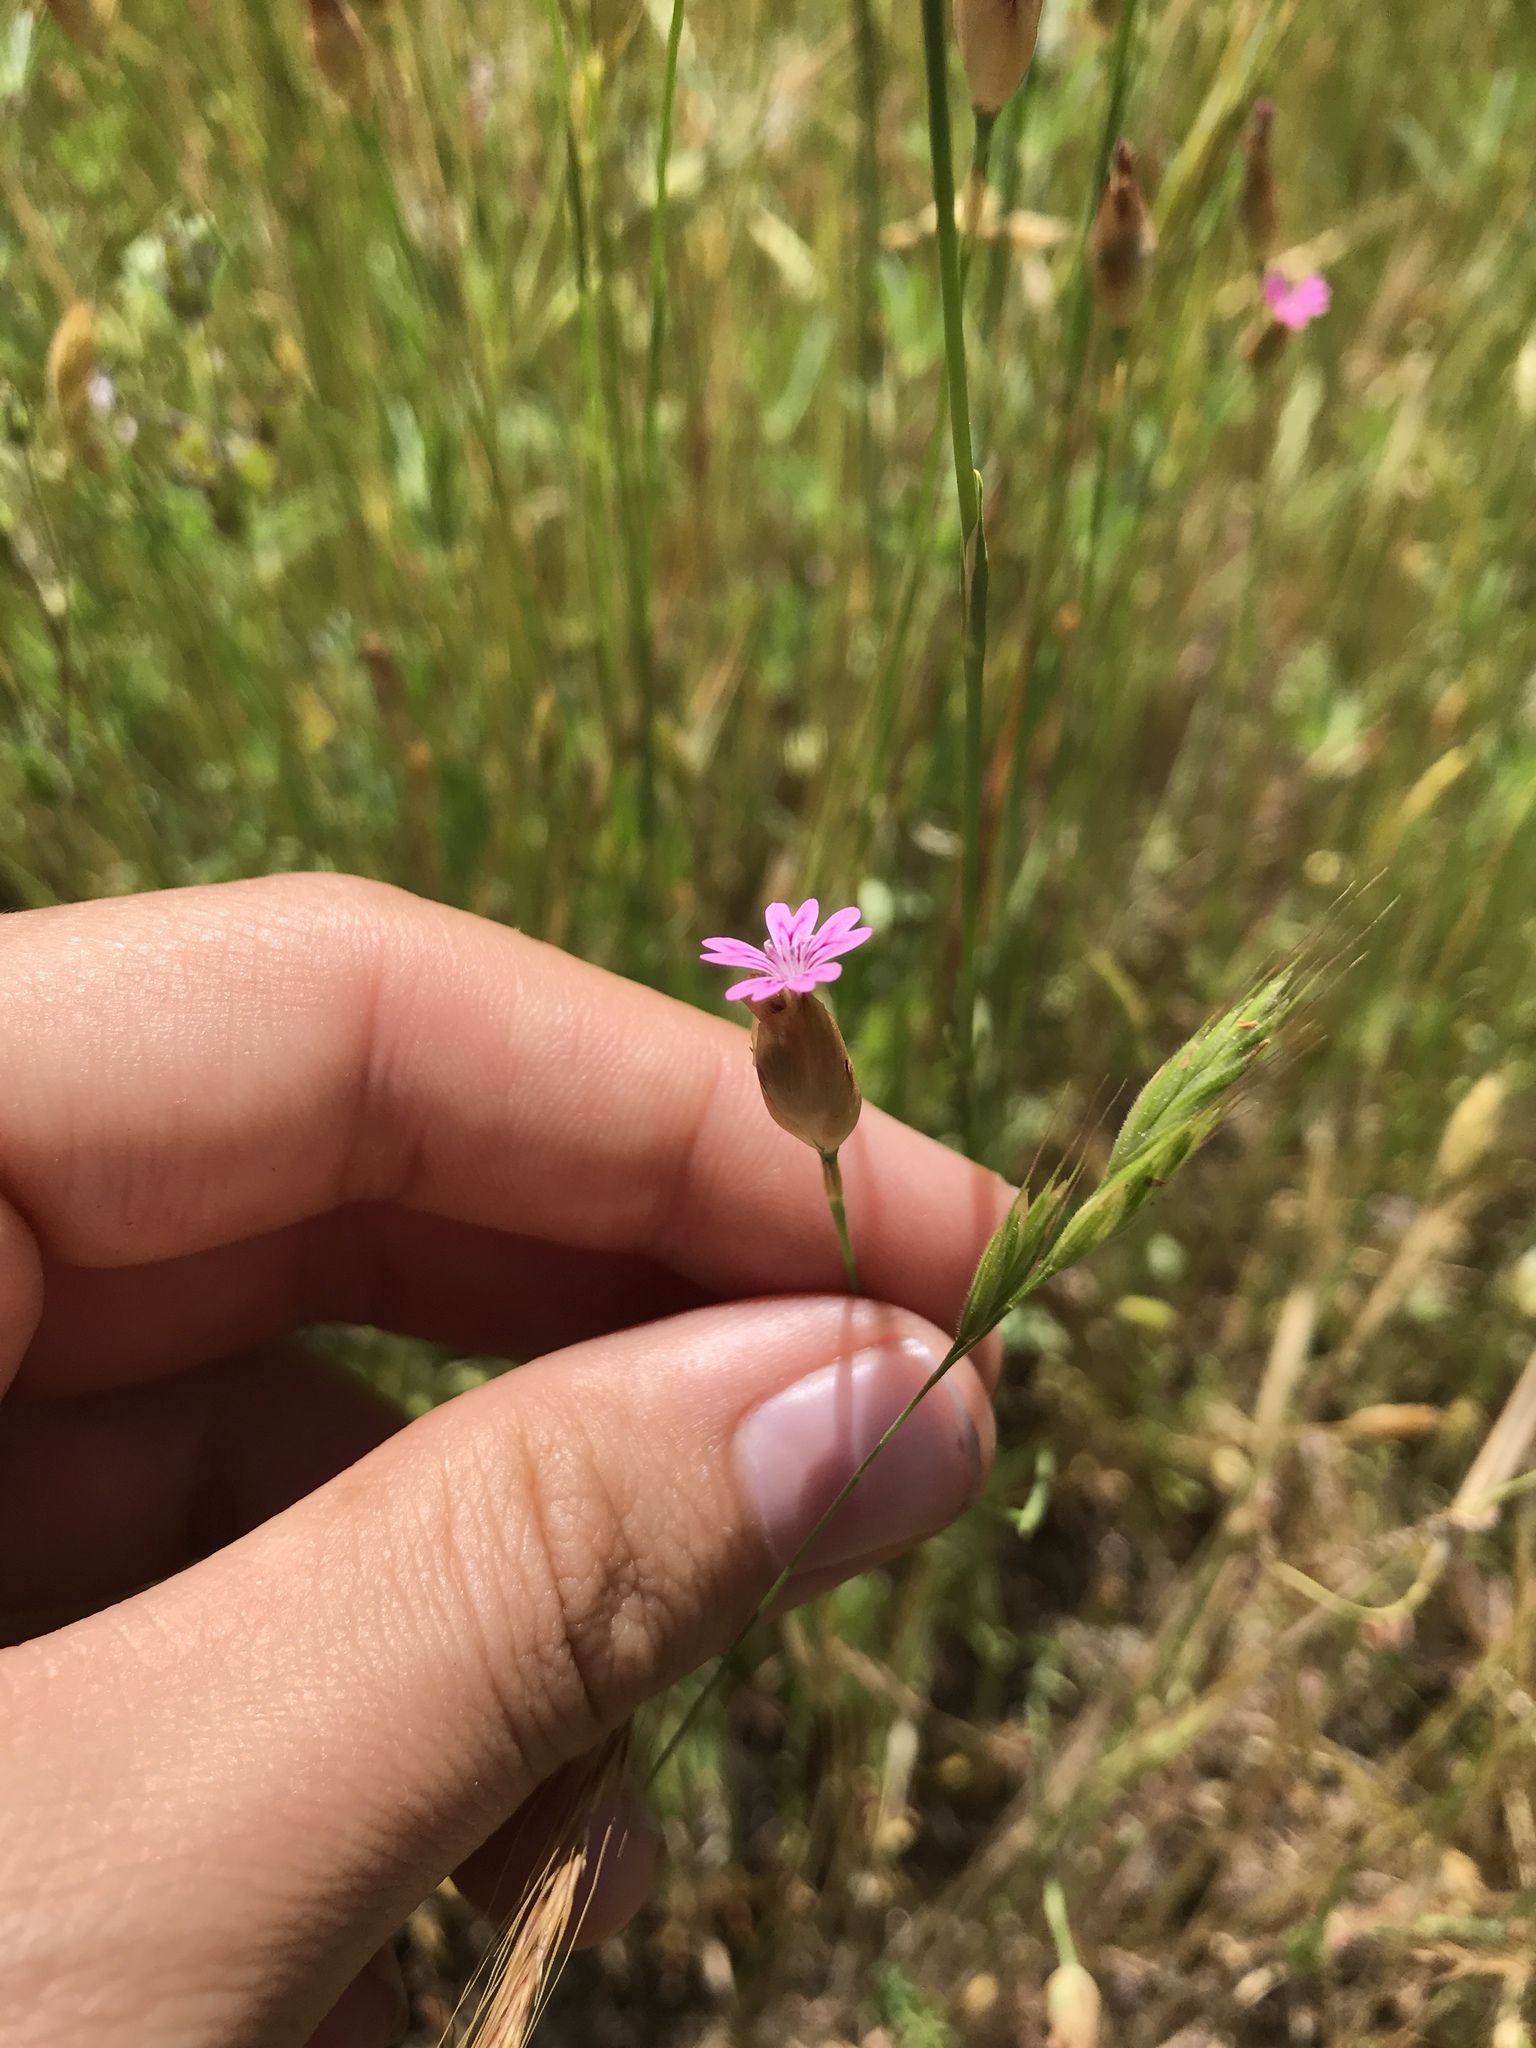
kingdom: Plantae
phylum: Tracheophyta
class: Magnoliopsida
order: Caryophyllales
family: Caryophyllaceae
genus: Petrorhagia
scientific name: Petrorhagia dubia
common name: Hairypink
